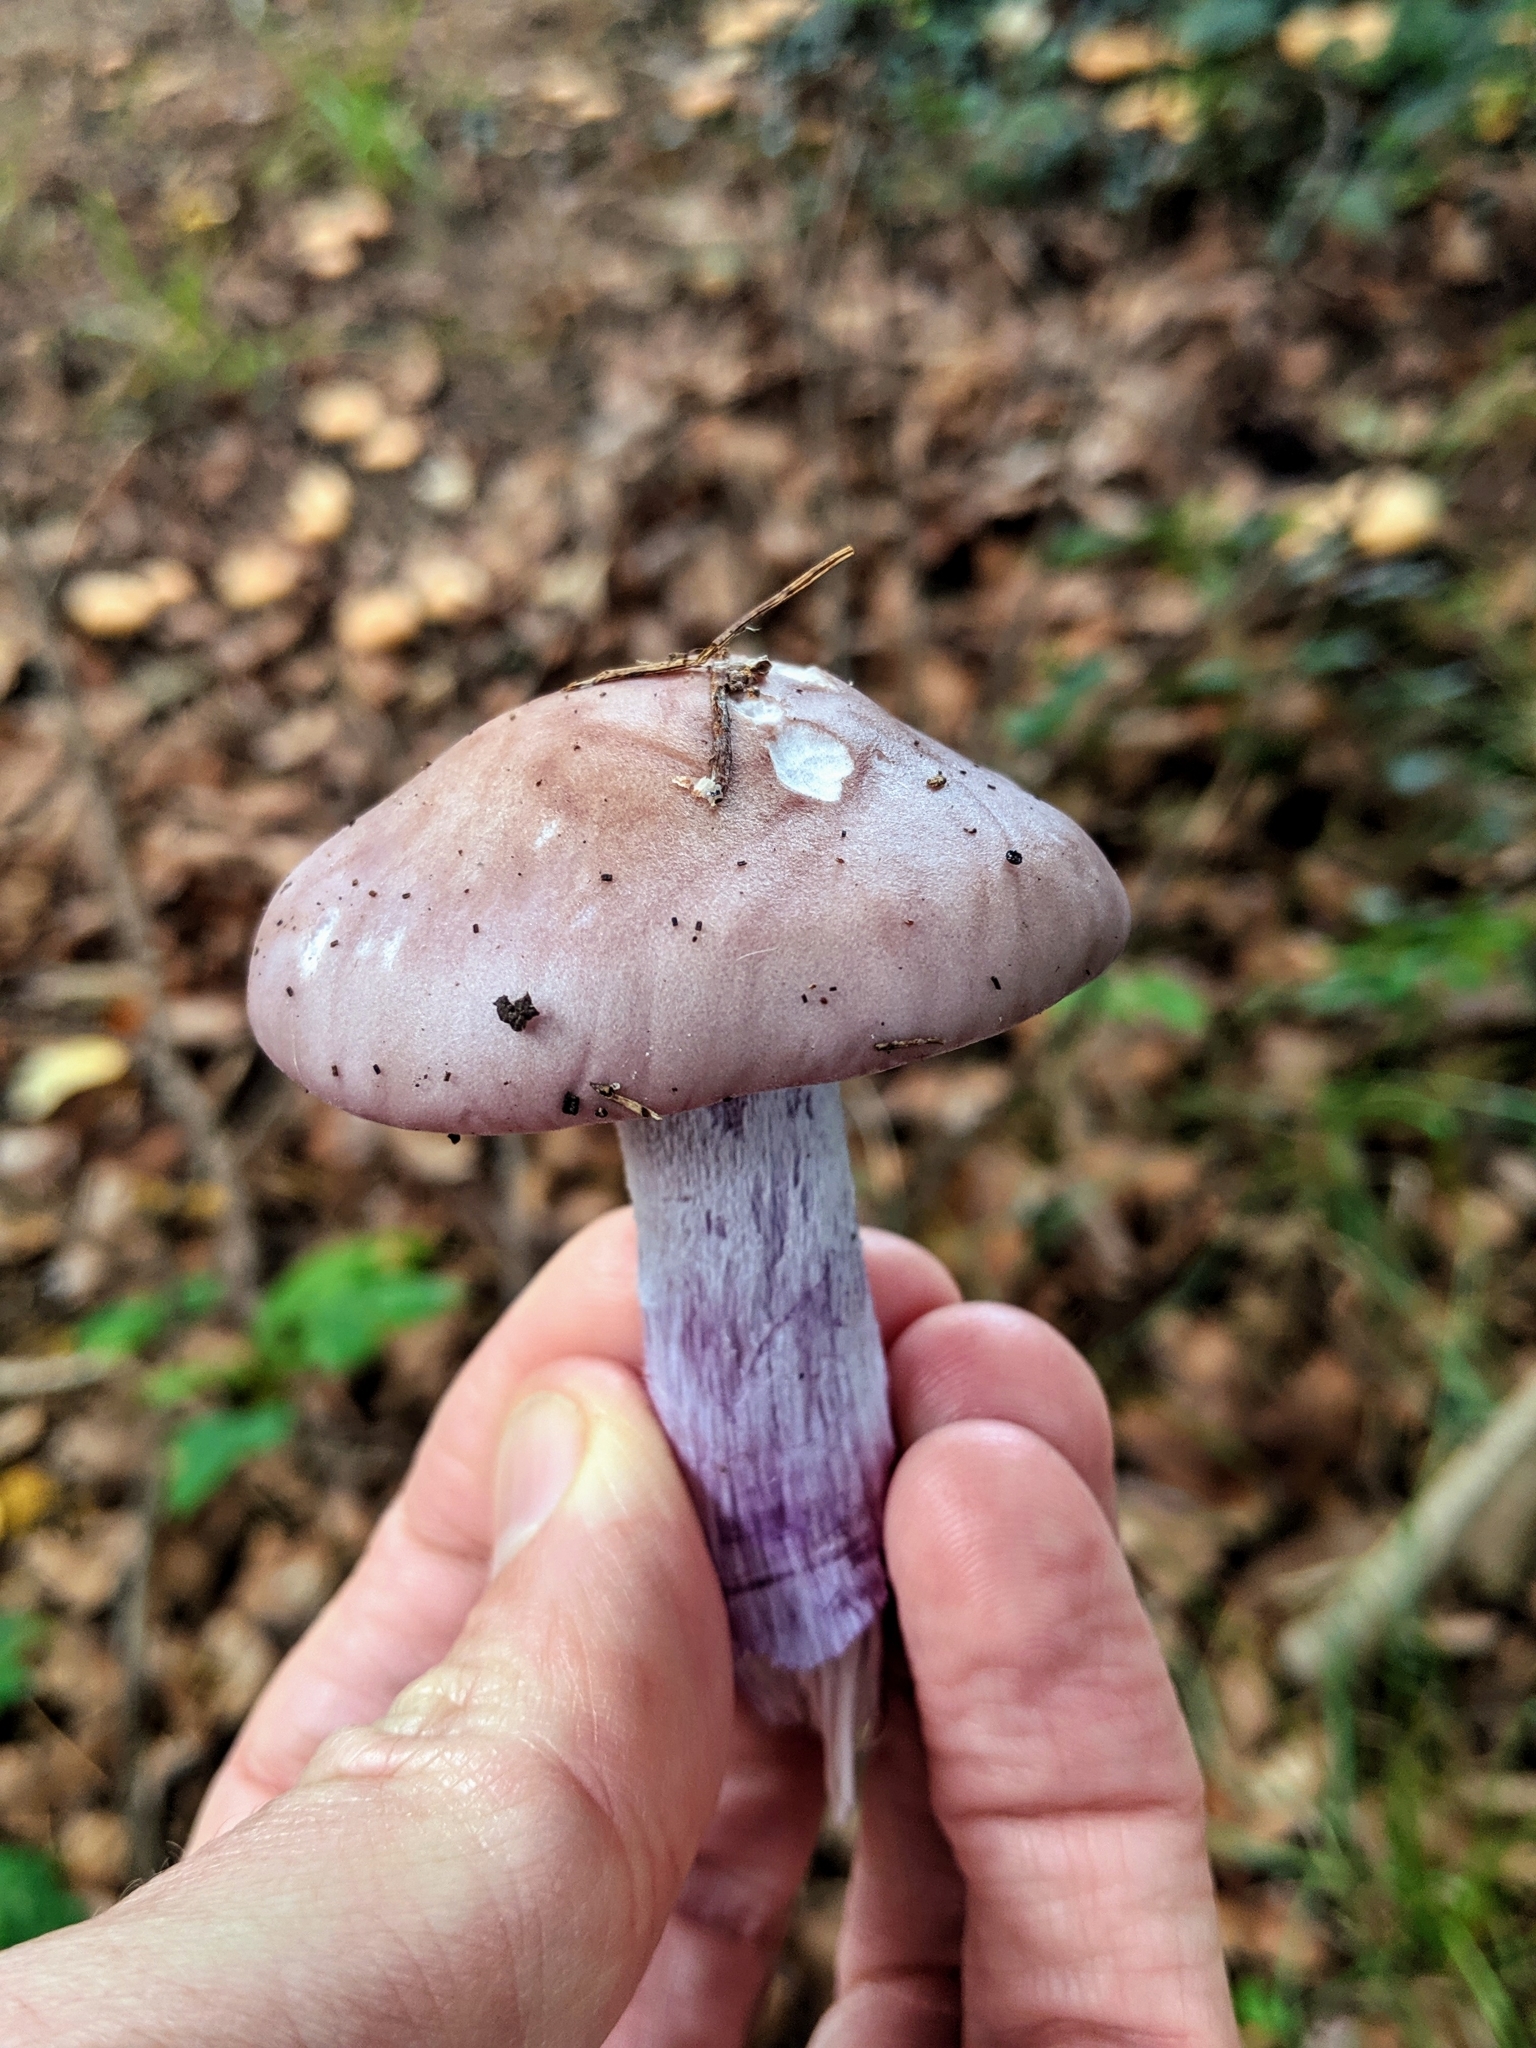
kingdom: Fungi
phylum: Basidiomycota
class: Agaricomycetes
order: Agaricales
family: Tricholomataceae
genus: Collybia
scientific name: Collybia
